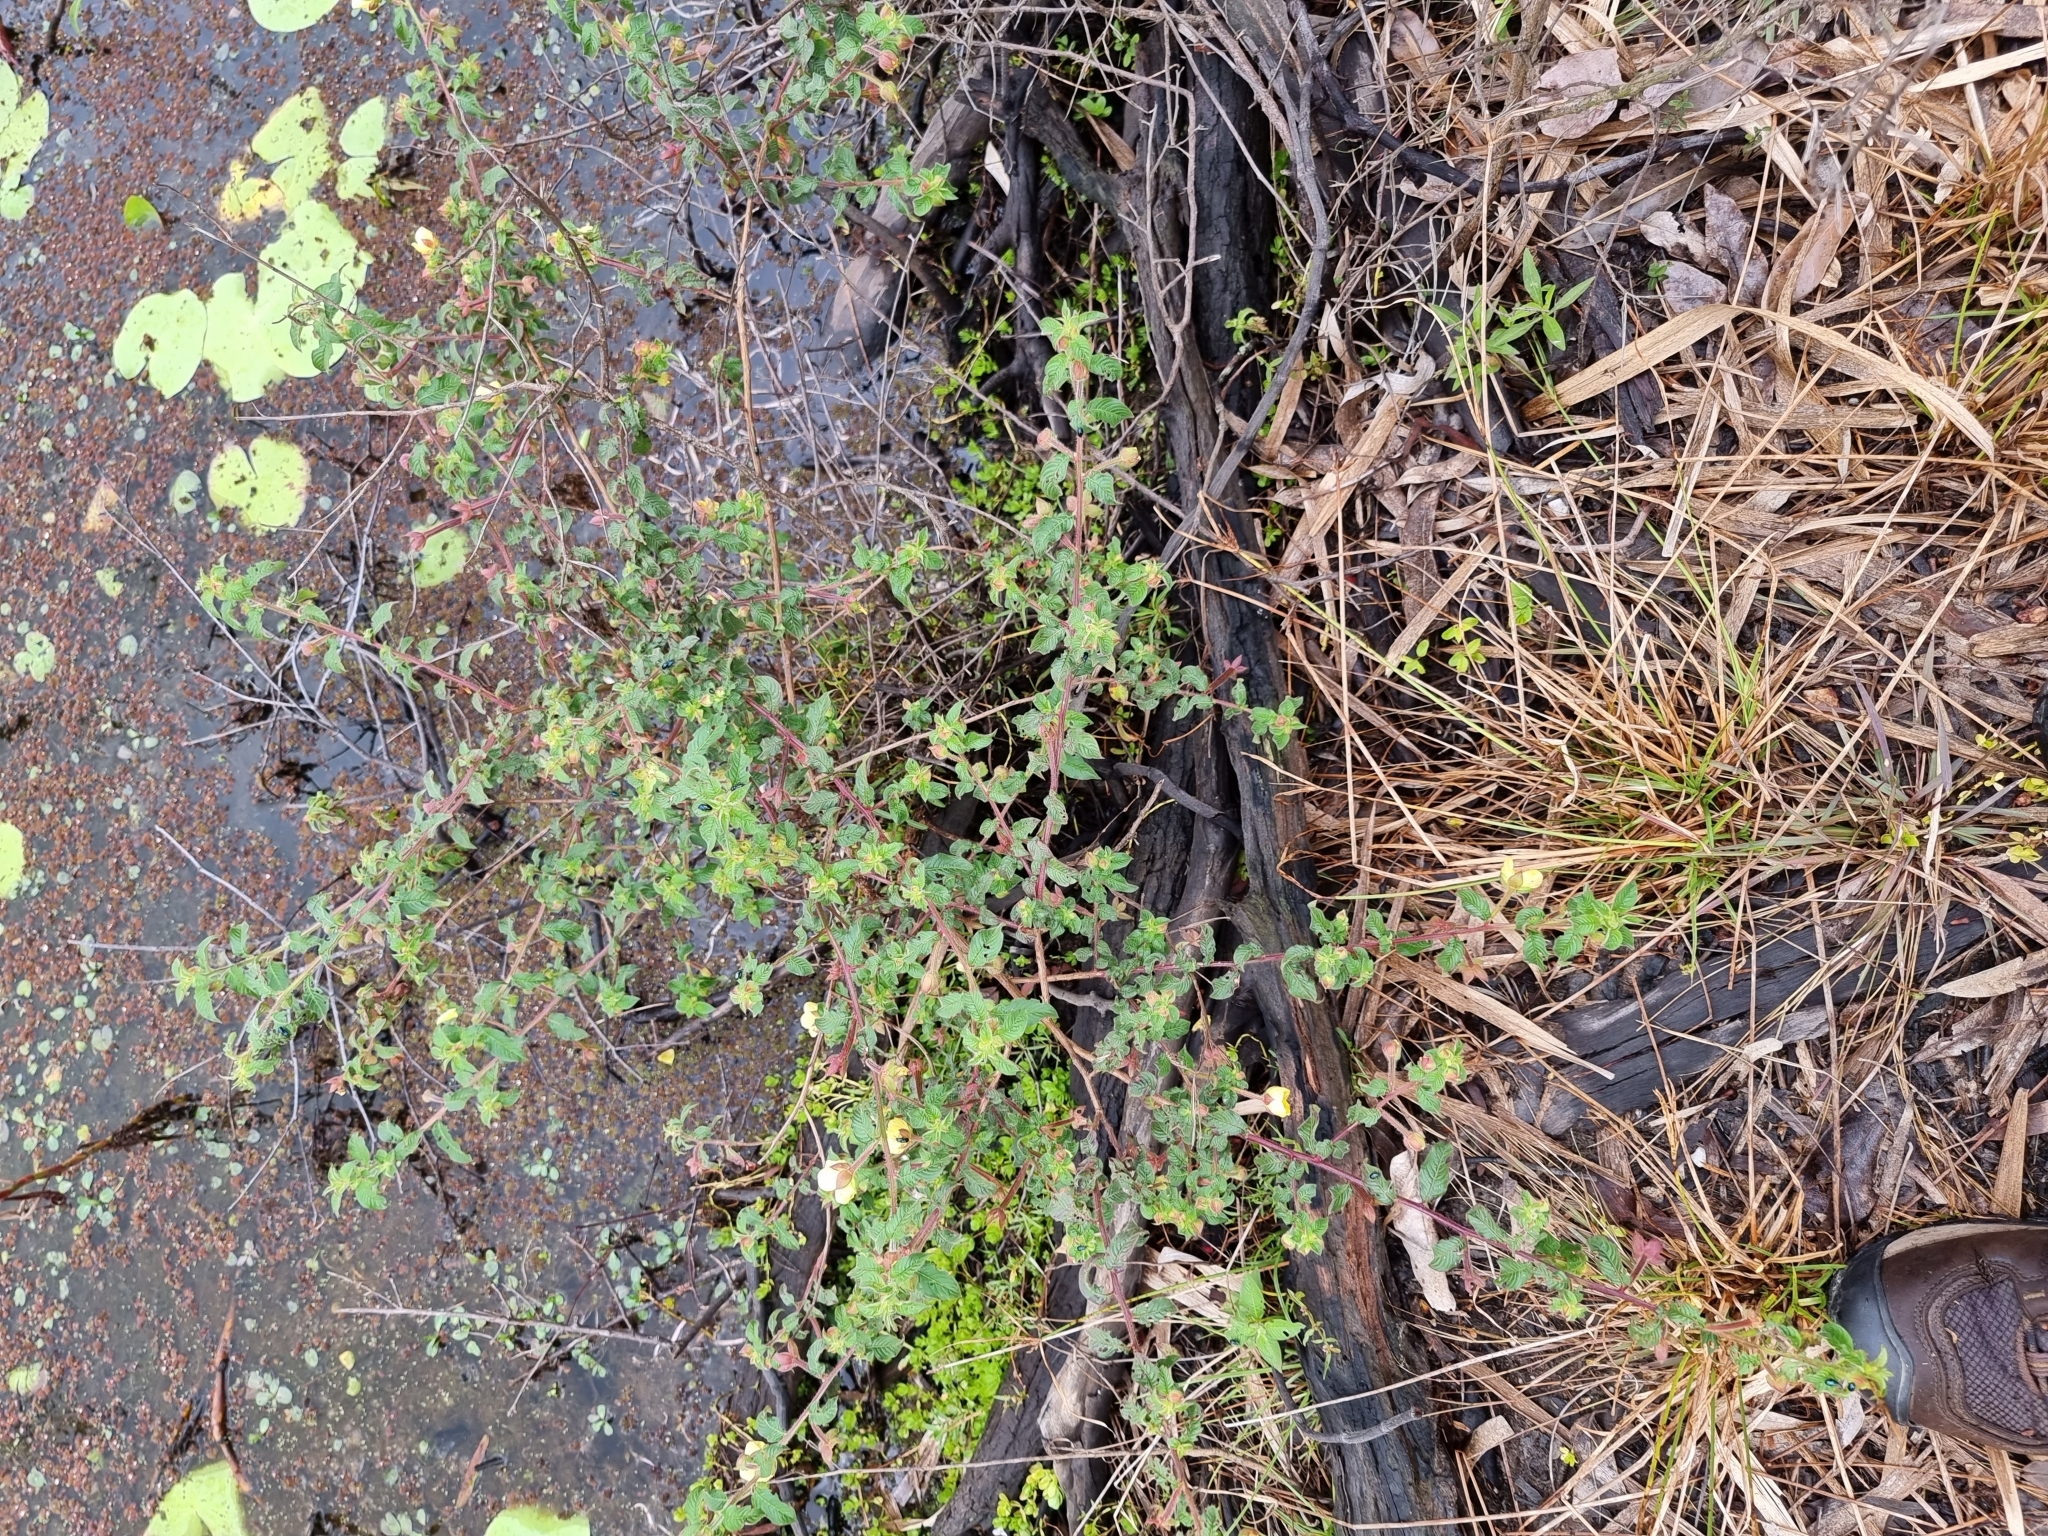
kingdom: Plantae
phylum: Tracheophyta
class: Magnoliopsida
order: Myrtales
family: Onagraceae
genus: Ludwigia
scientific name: Ludwigia octovalvis
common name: Water-primrose
